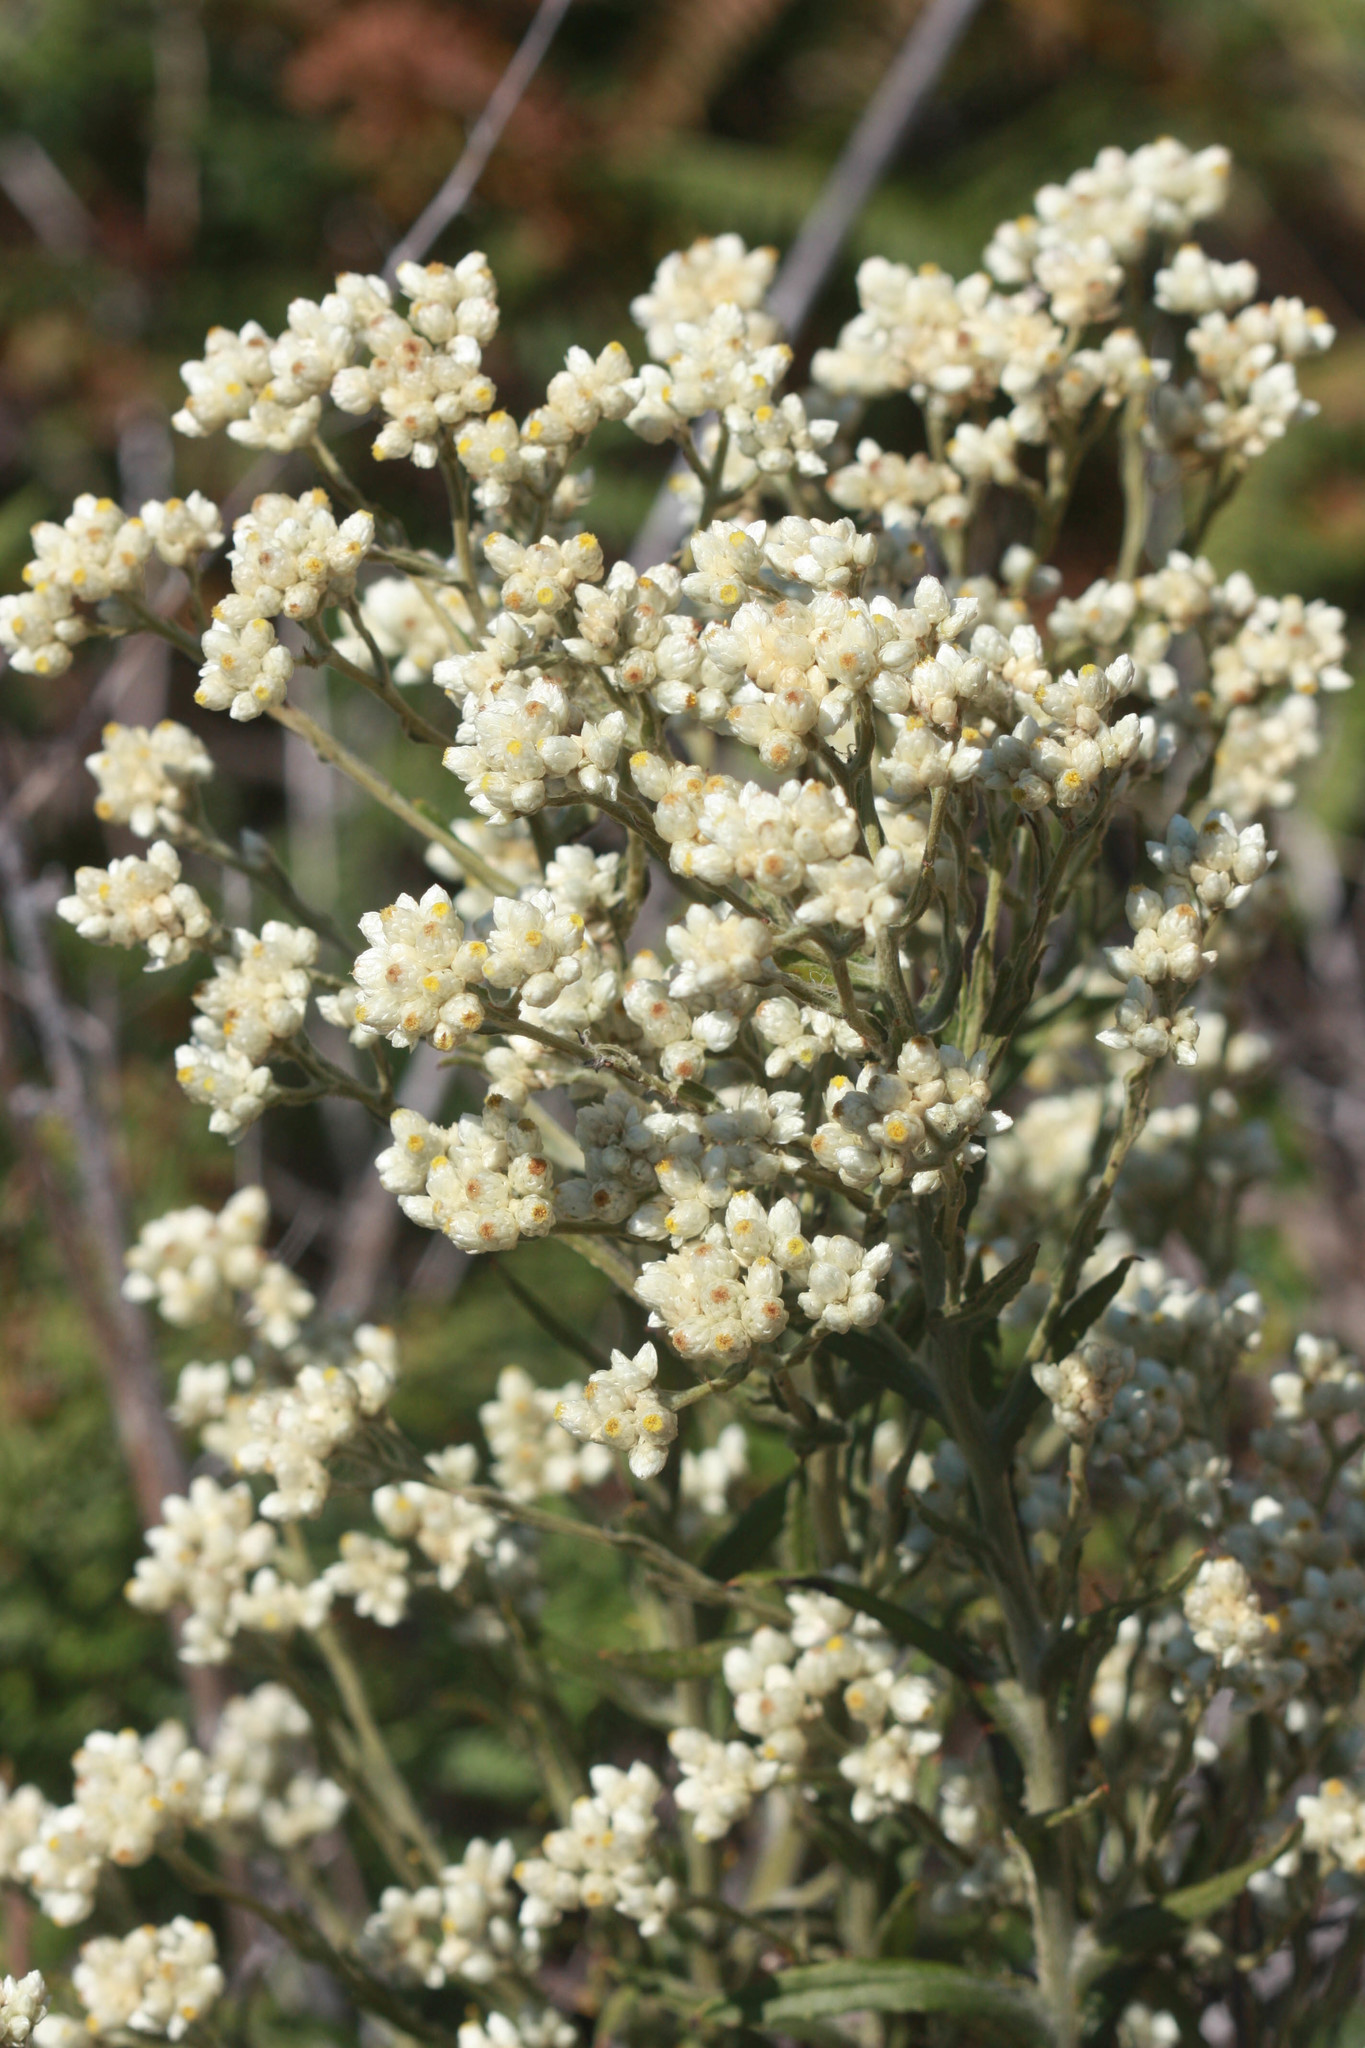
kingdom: Plantae
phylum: Tracheophyta
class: Magnoliopsida
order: Asterales
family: Asteraceae
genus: Pseudognaphalium
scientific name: Pseudognaphalium californicum
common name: California rabbit-tobacco
